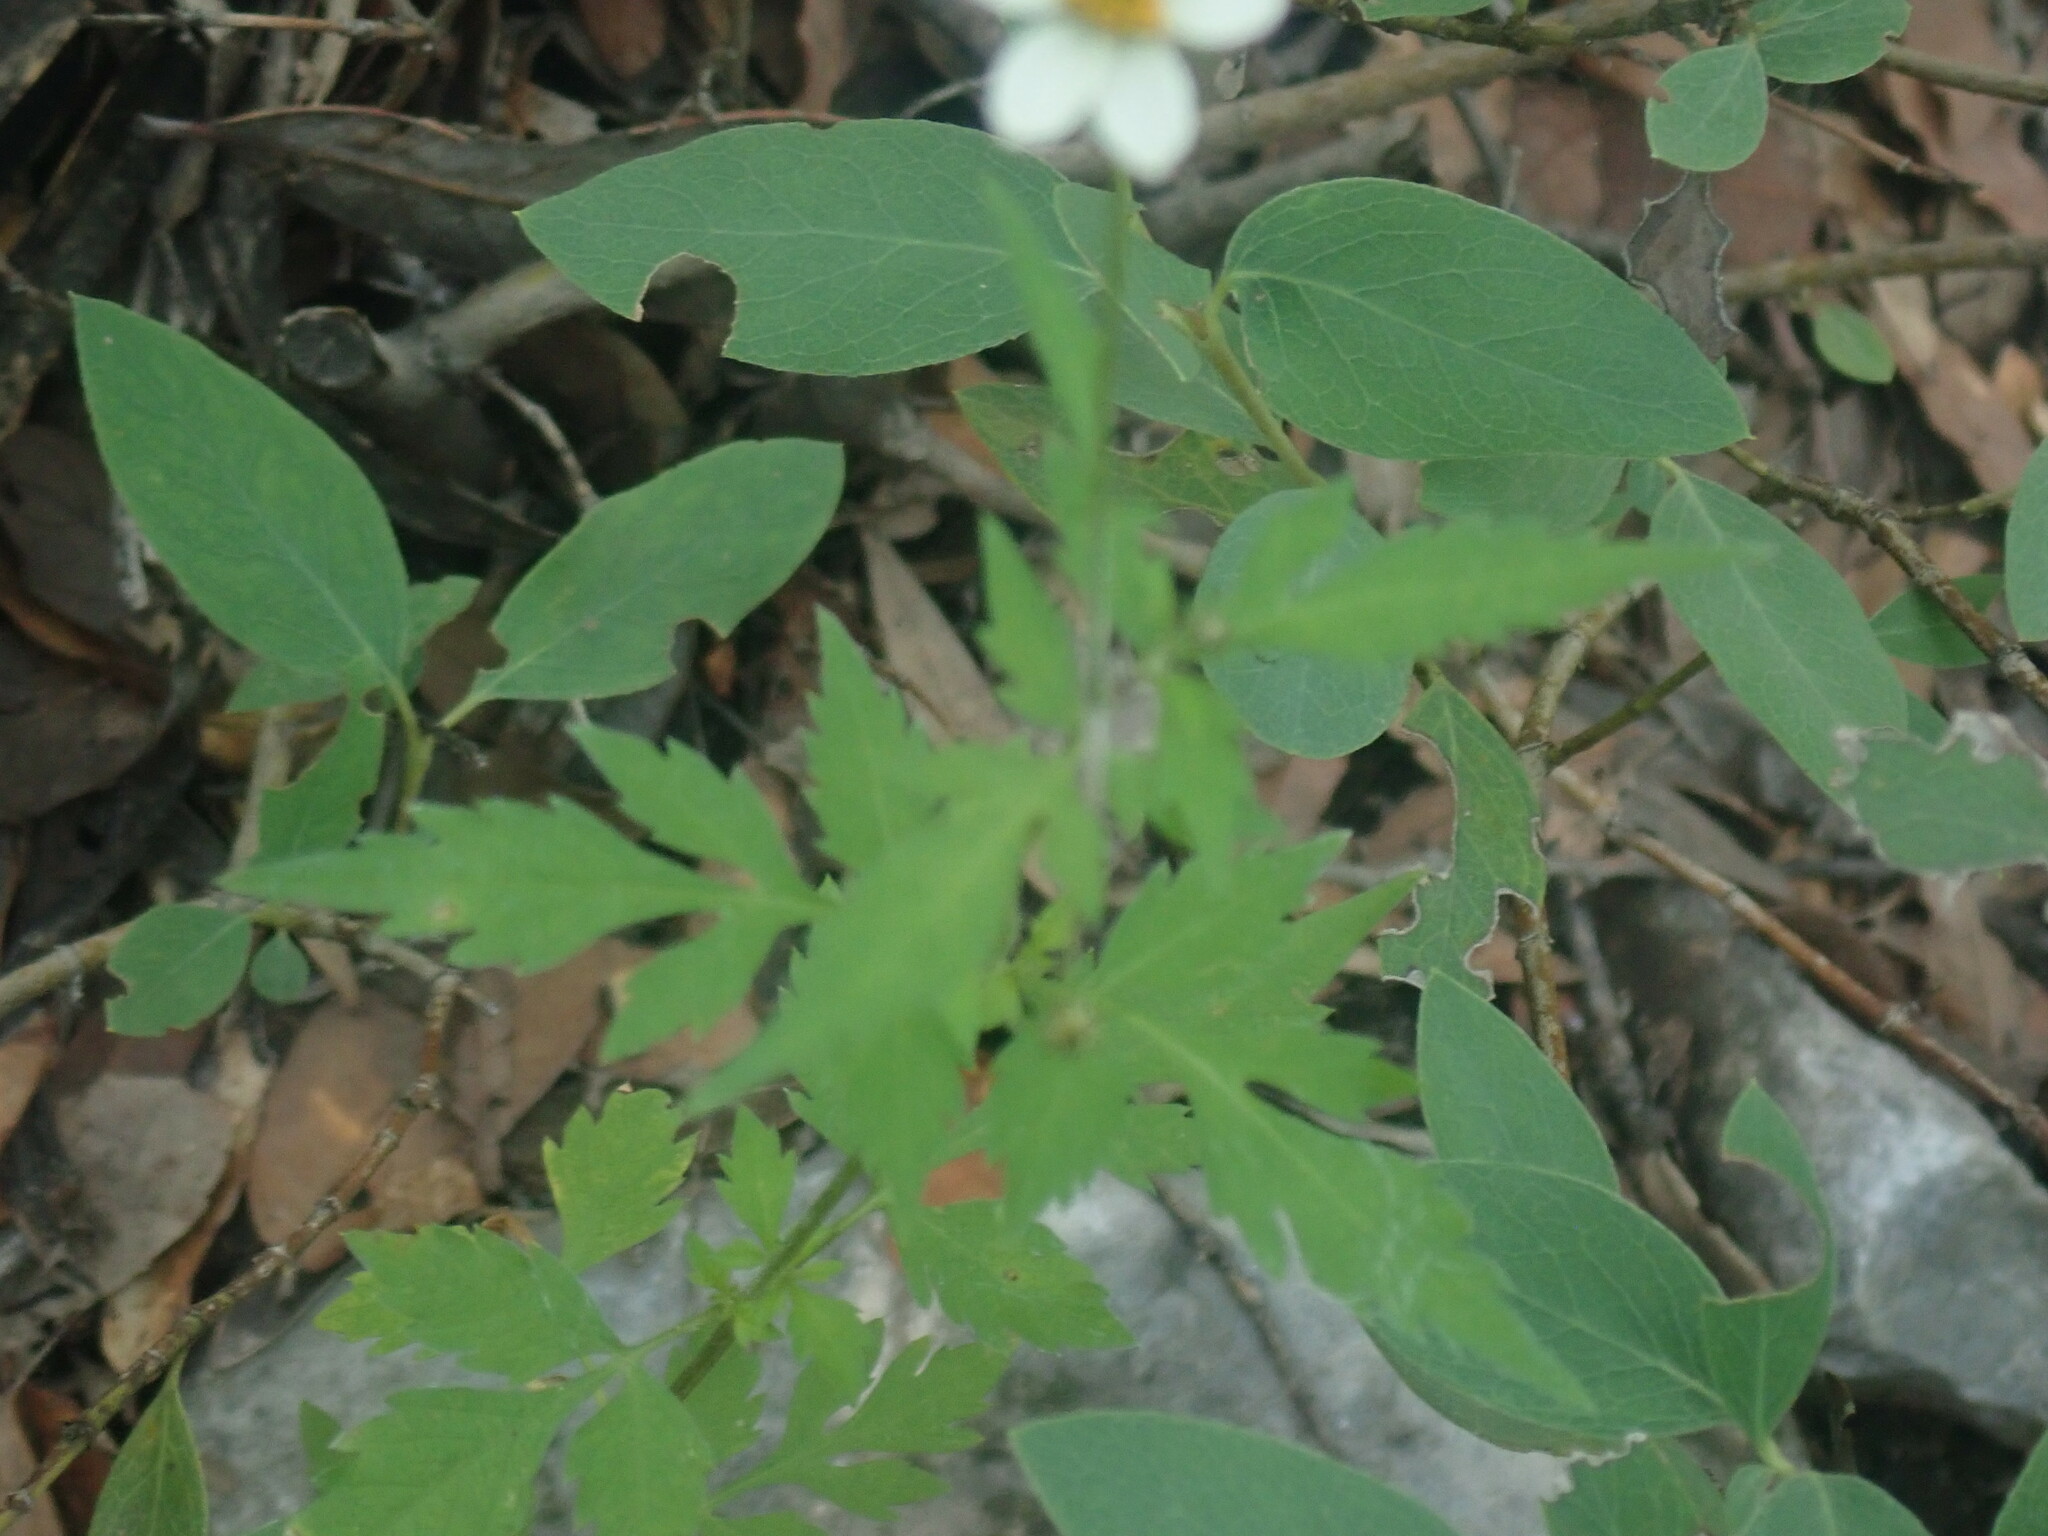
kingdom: Plantae
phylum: Tracheophyta
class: Magnoliopsida
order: Asterales
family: Asteraceae
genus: Bidens
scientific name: Bidens alba
